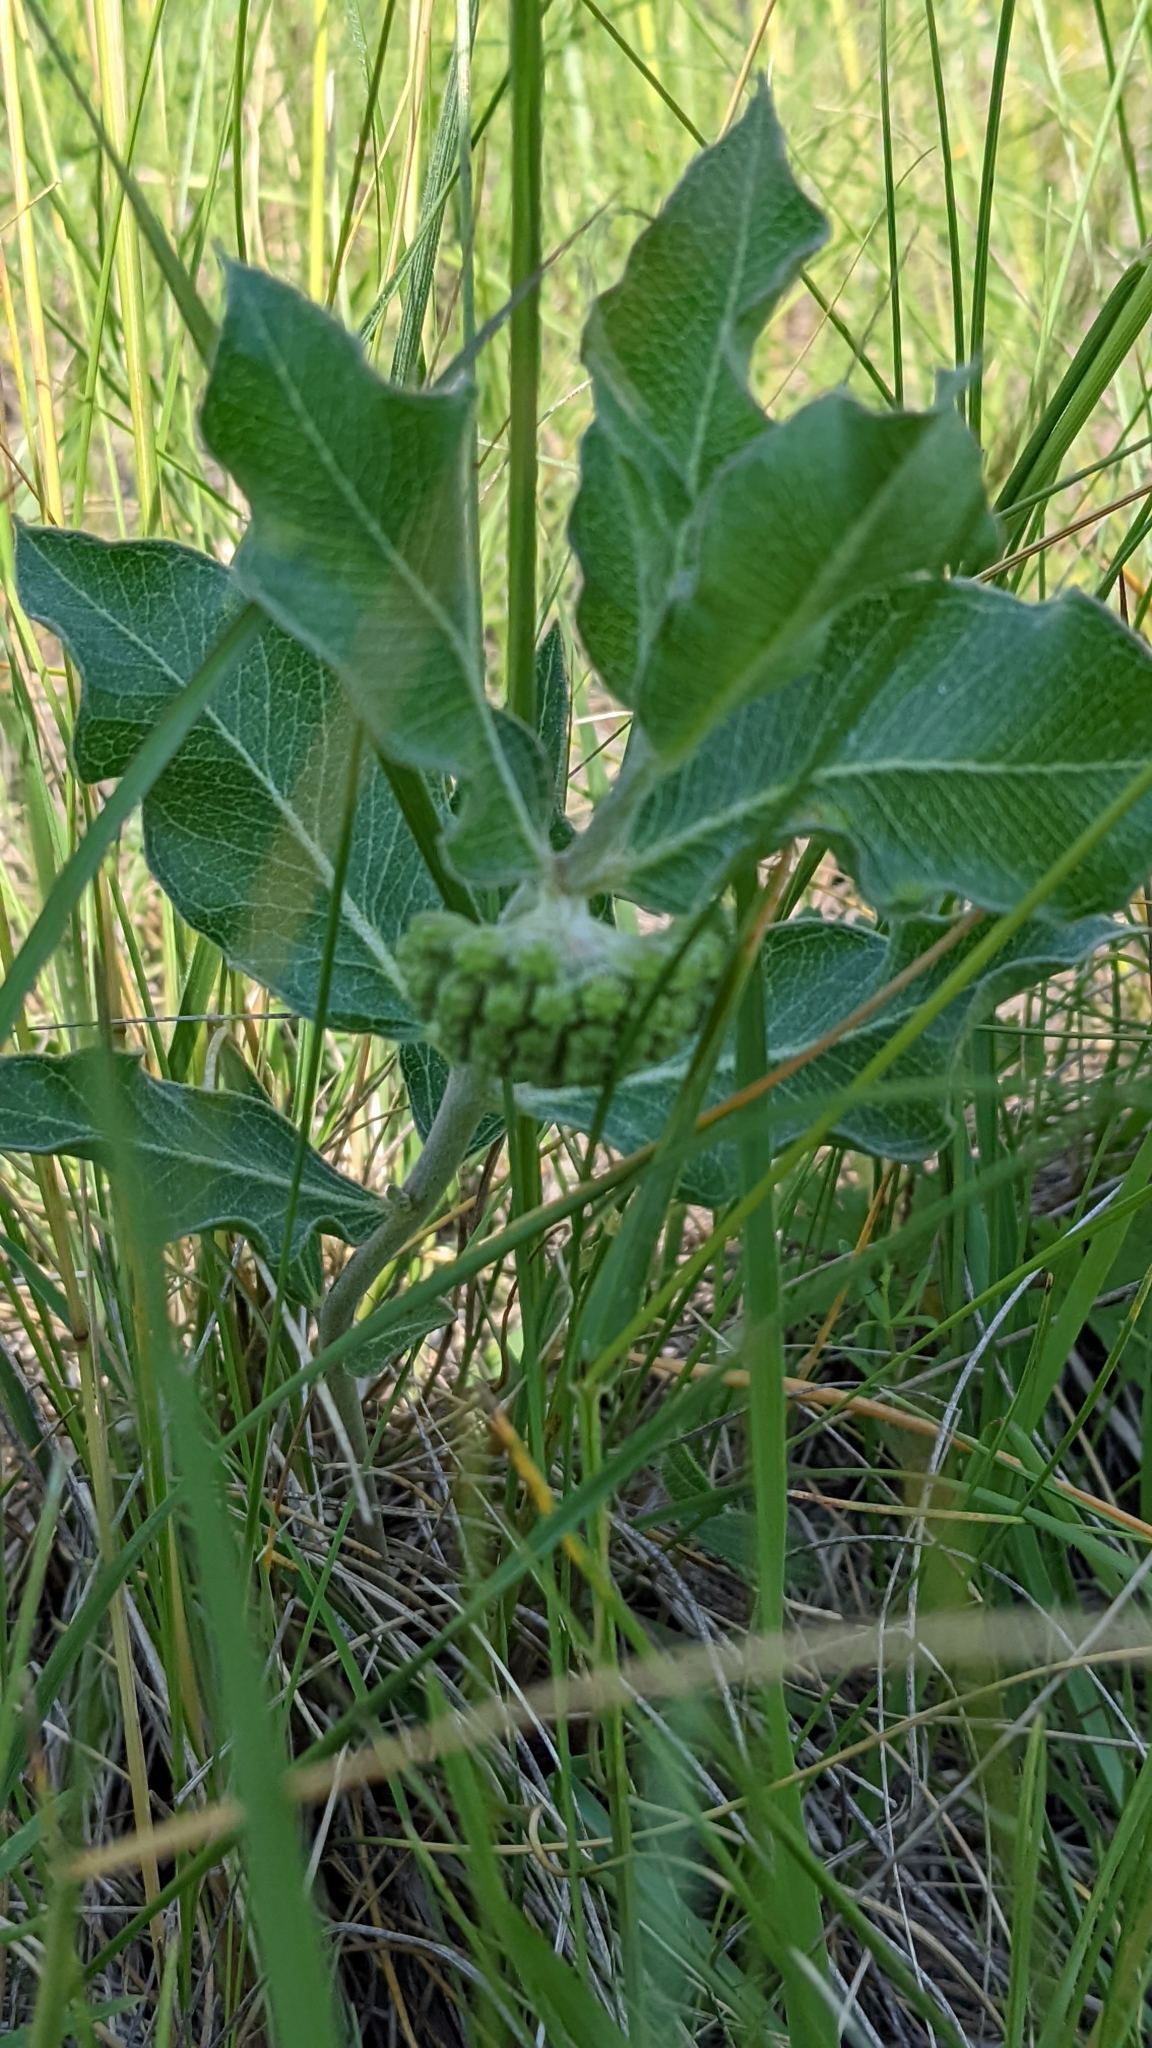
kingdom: Plantae
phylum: Tracheophyta
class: Magnoliopsida
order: Gentianales
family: Apocynaceae
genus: Asclepias
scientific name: Asclepias viridiflora
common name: Green comet milkweed
